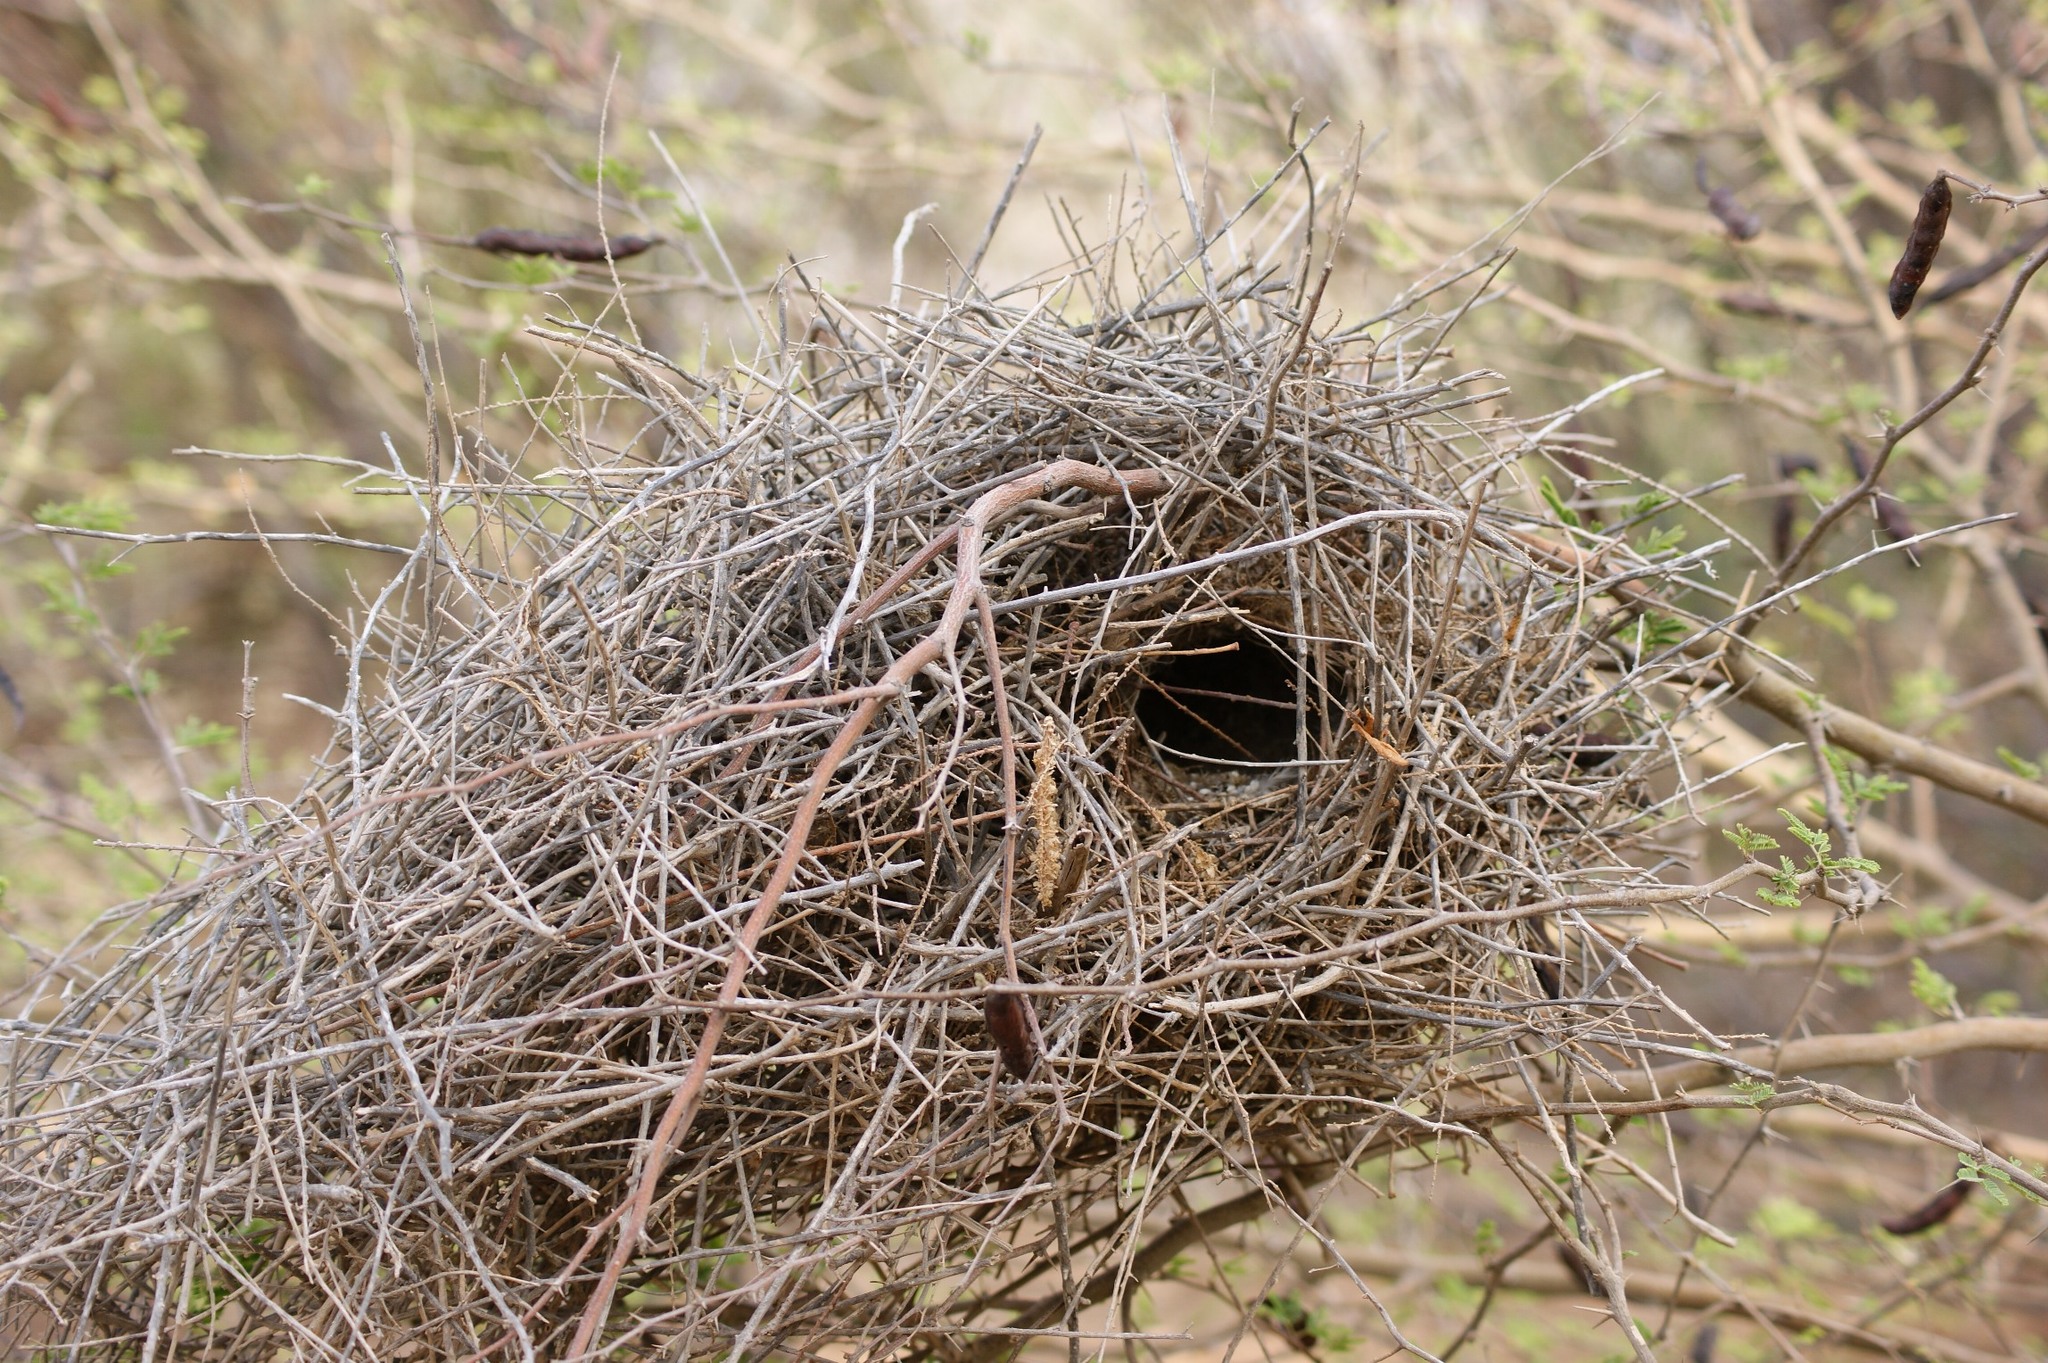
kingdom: Animalia
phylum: Chordata
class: Aves
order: Passeriformes
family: Passeridae
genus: Passer
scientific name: Passer moabiticus
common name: Dead sea sparrow
